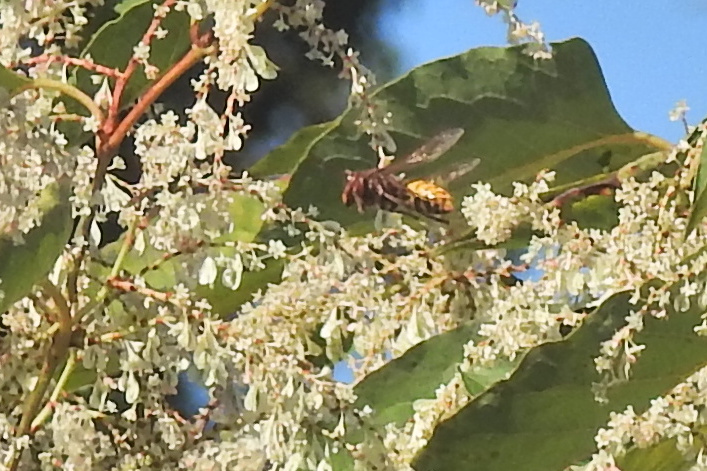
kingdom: Animalia
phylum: Arthropoda
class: Insecta
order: Hymenoptera
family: Vespidae
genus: Vespa
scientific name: Vespa crabro
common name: Hornet
